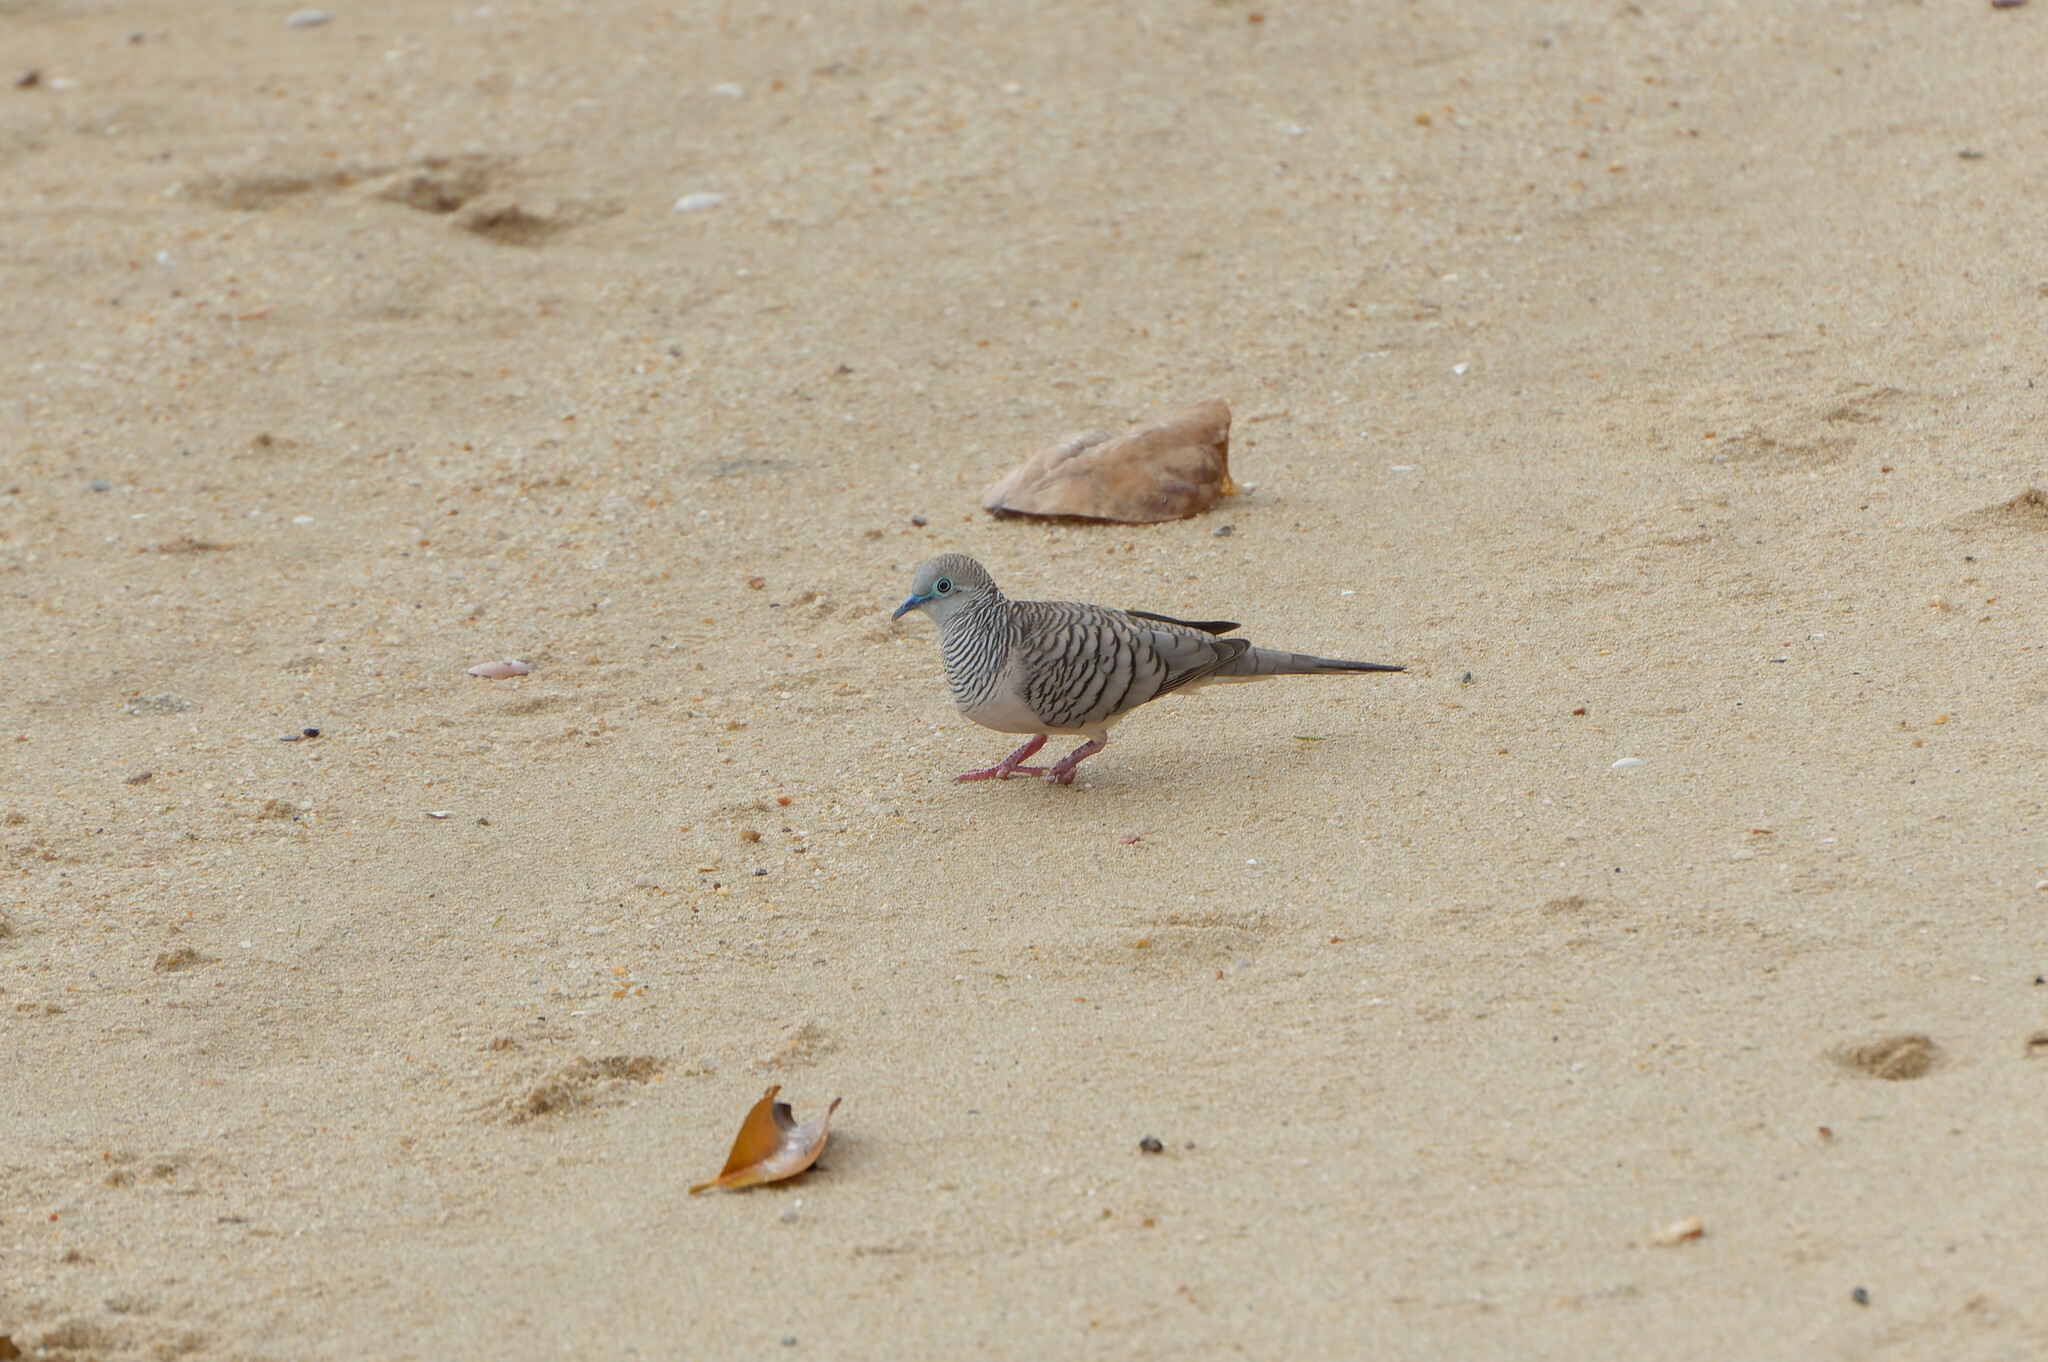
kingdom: Animalia
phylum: Chordata
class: Aves
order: Columbiformes
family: Columbidae
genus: Geopelia
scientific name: Geopelia placida
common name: Peaceful dove
